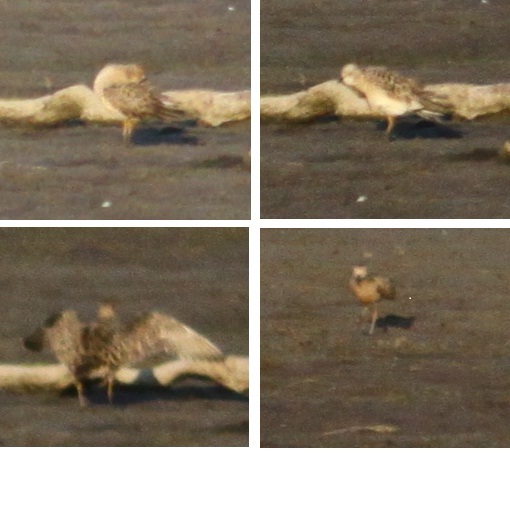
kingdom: Animalia
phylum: Chordata
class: Aves
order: Charadriiformes
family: Scolopacidae
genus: Calidris
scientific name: Calidris subruficollis
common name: Buff-breasted sandpiper
